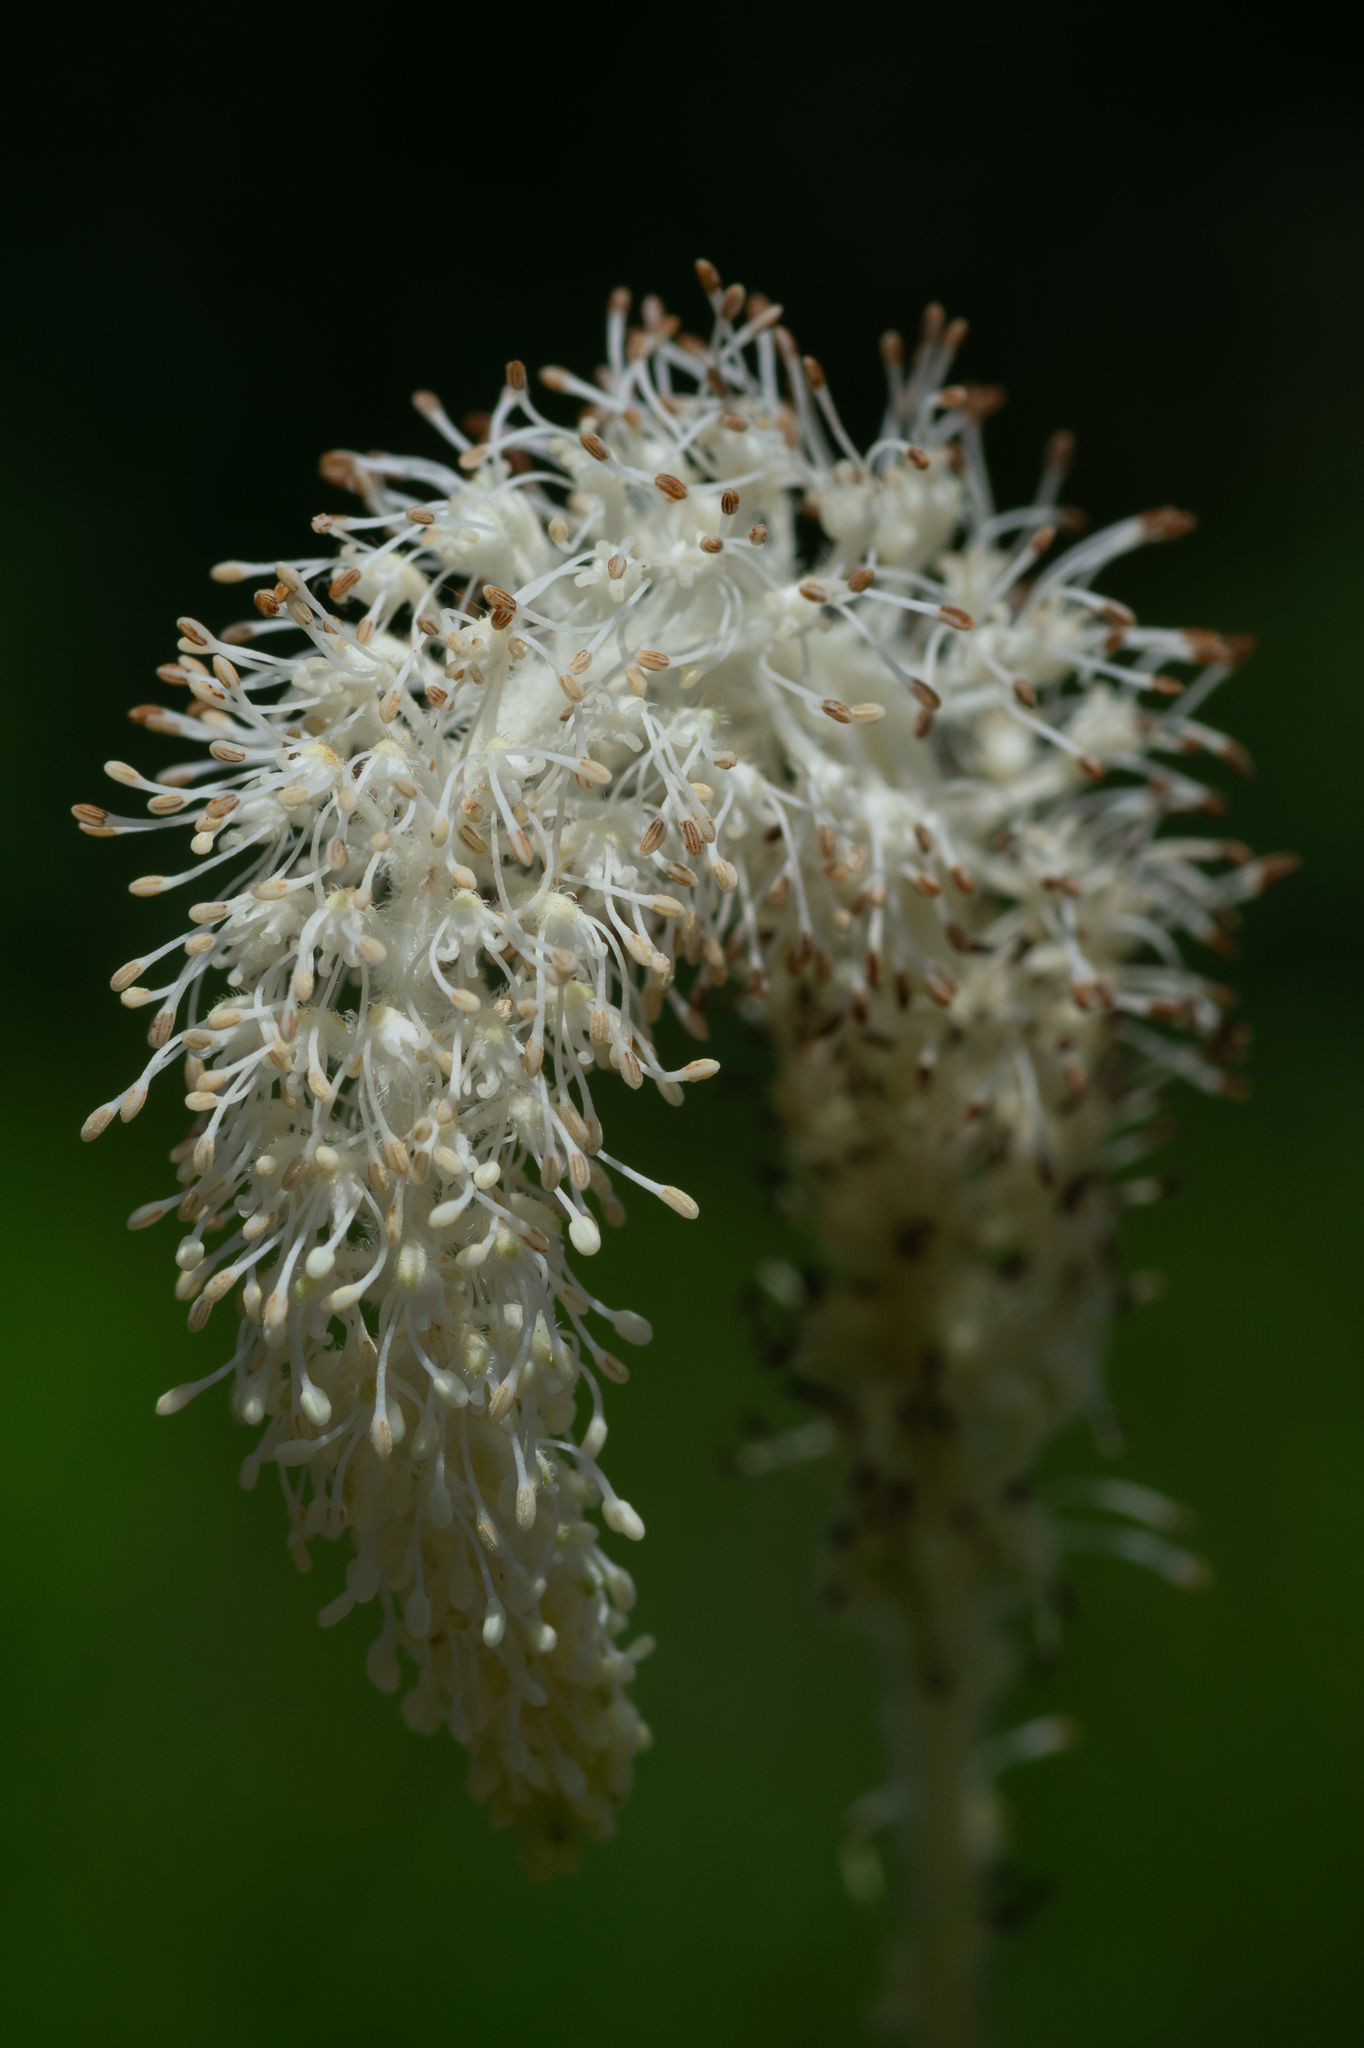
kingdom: Plantae
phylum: Tracheophyta
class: Magnoliopsida
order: Piperales
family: Saururaceae
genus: Saururus
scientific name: Saururus cernuus
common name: Lizard's-tail
